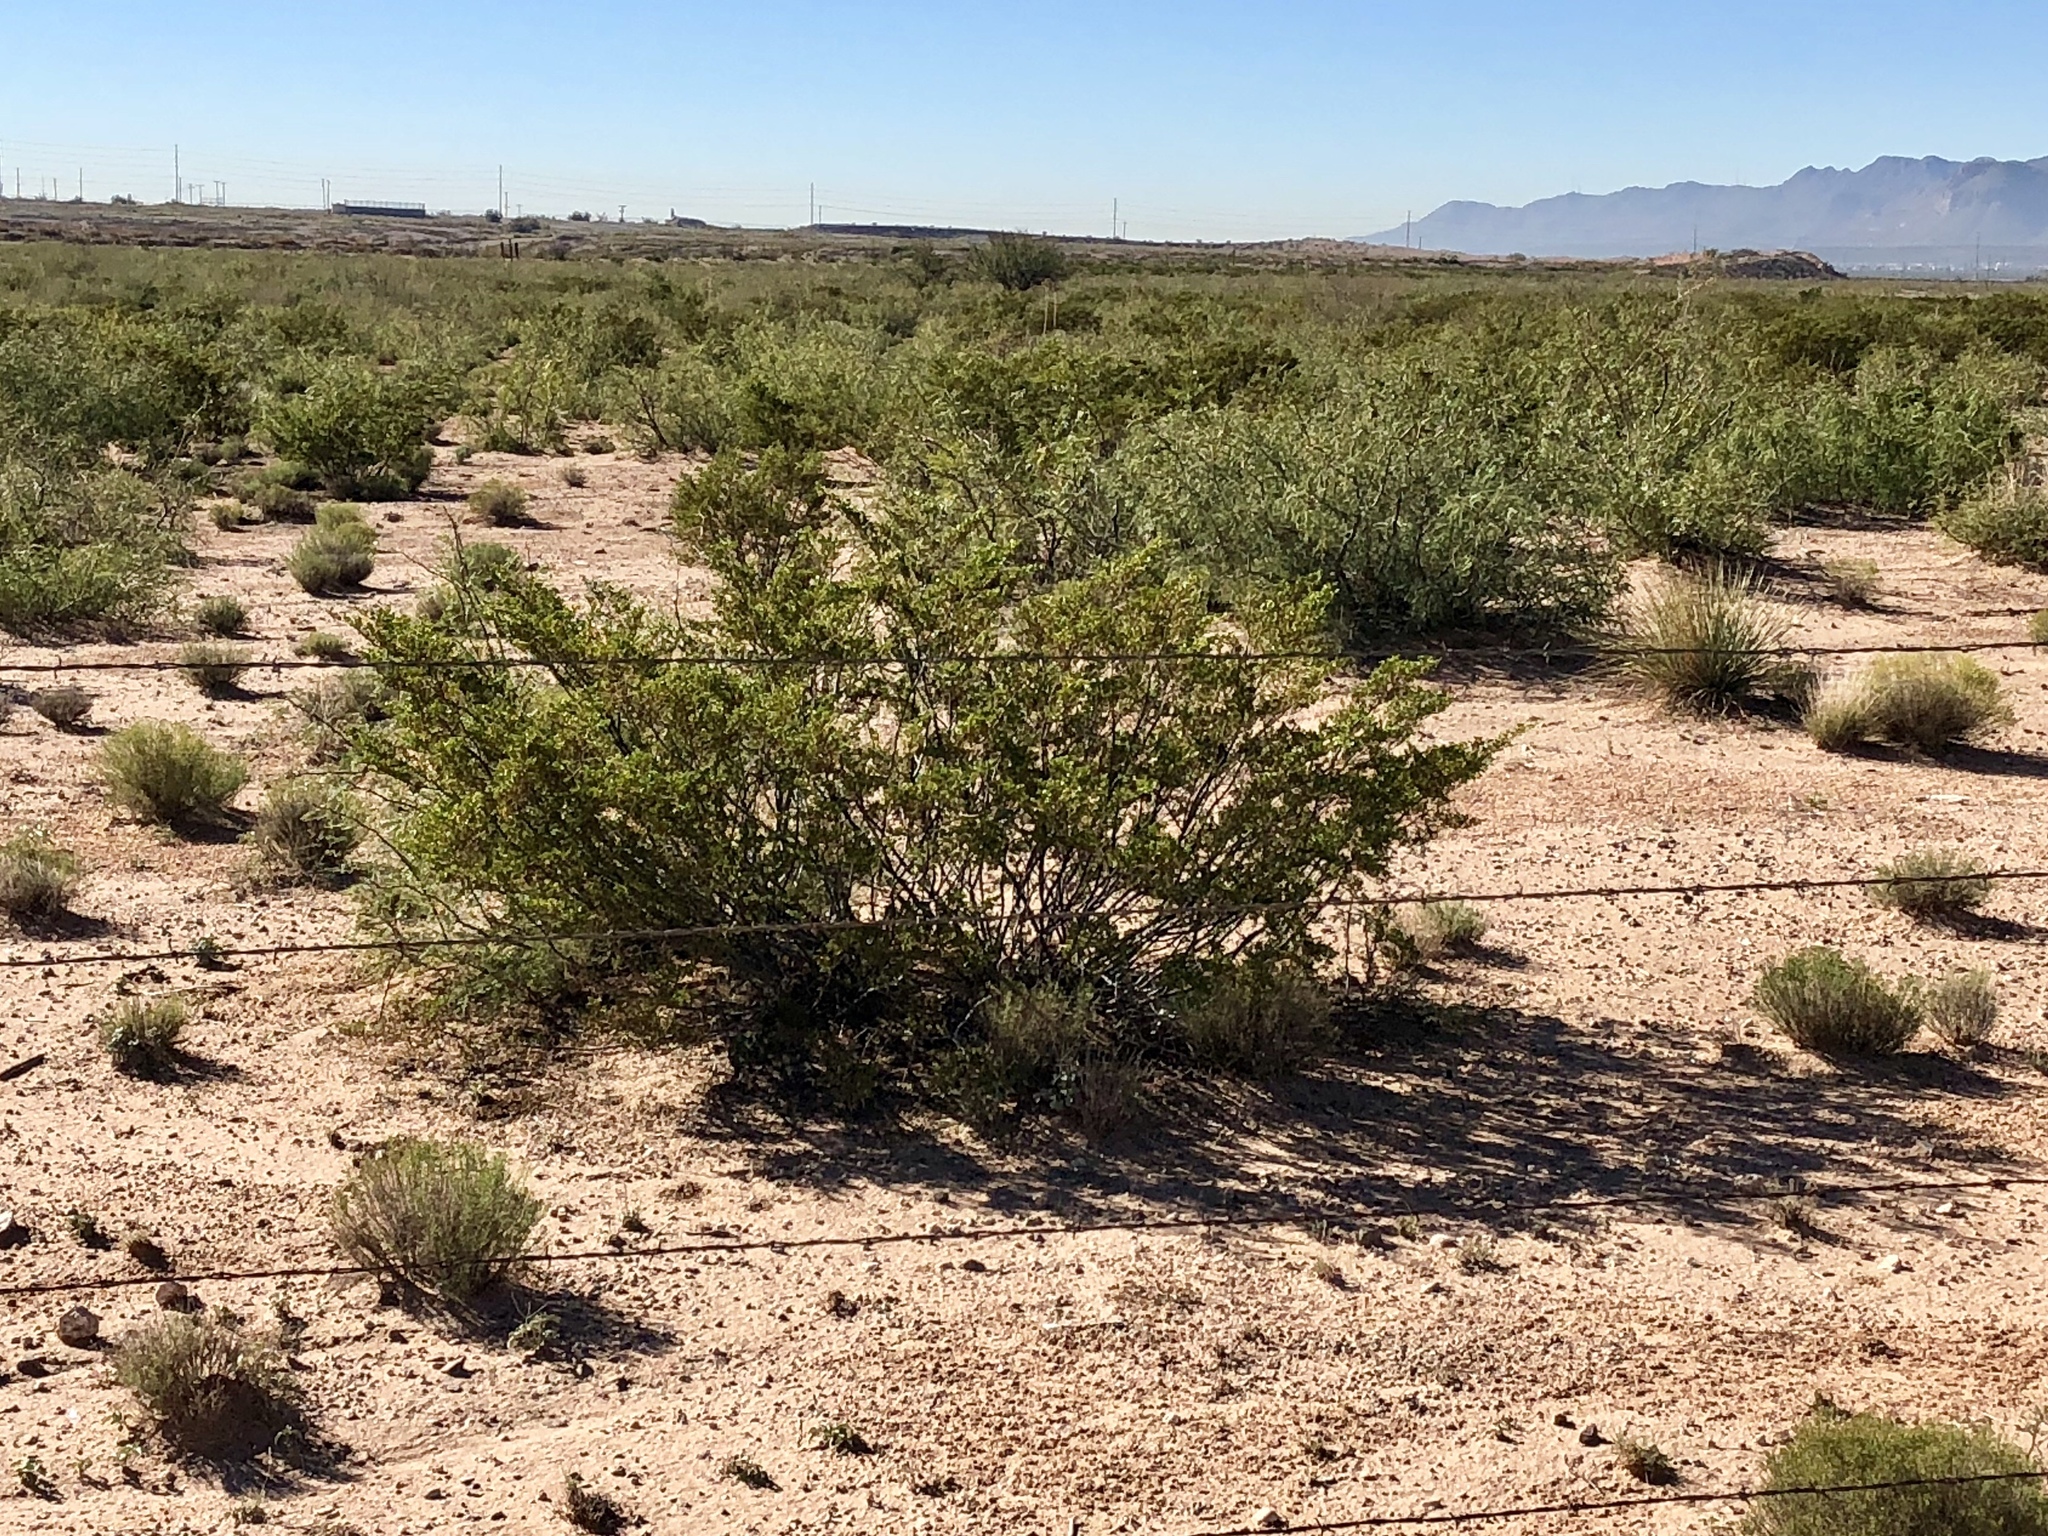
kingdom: Plantae
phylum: Tracheophyta
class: Magnoliopsida
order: Zygophyllales
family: Zygophyllaceae
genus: Larrea
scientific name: Larrea tridentata
